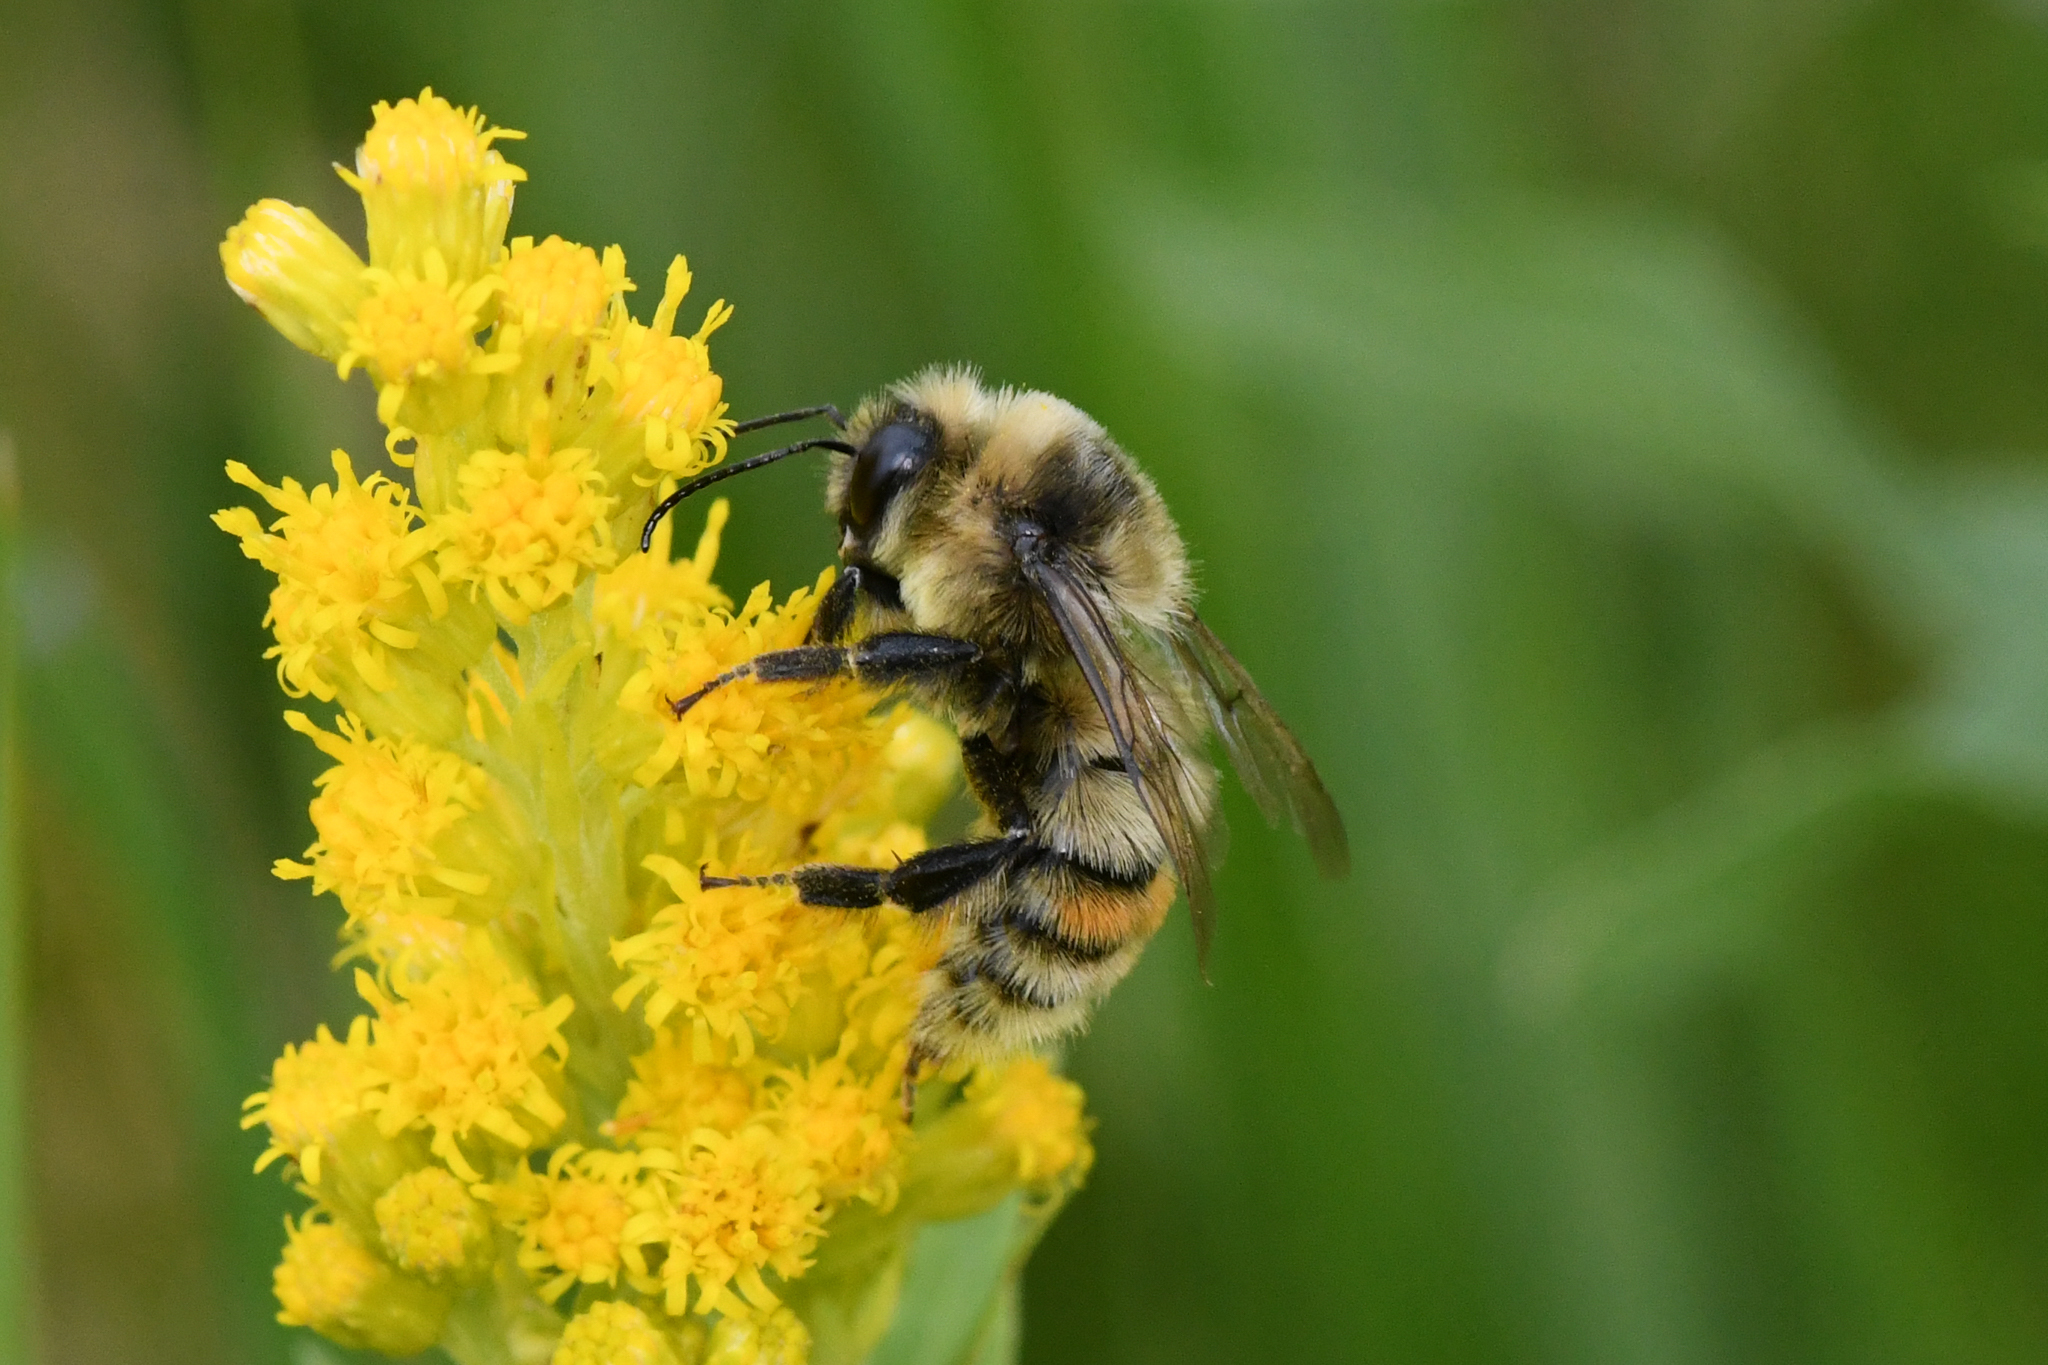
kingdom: Animalia
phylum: Arthropoda
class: Insecta
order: Hymenoptera
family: Apidae
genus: Bombus
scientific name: Bombus rufocinctus
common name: Red-belted bumble bee
